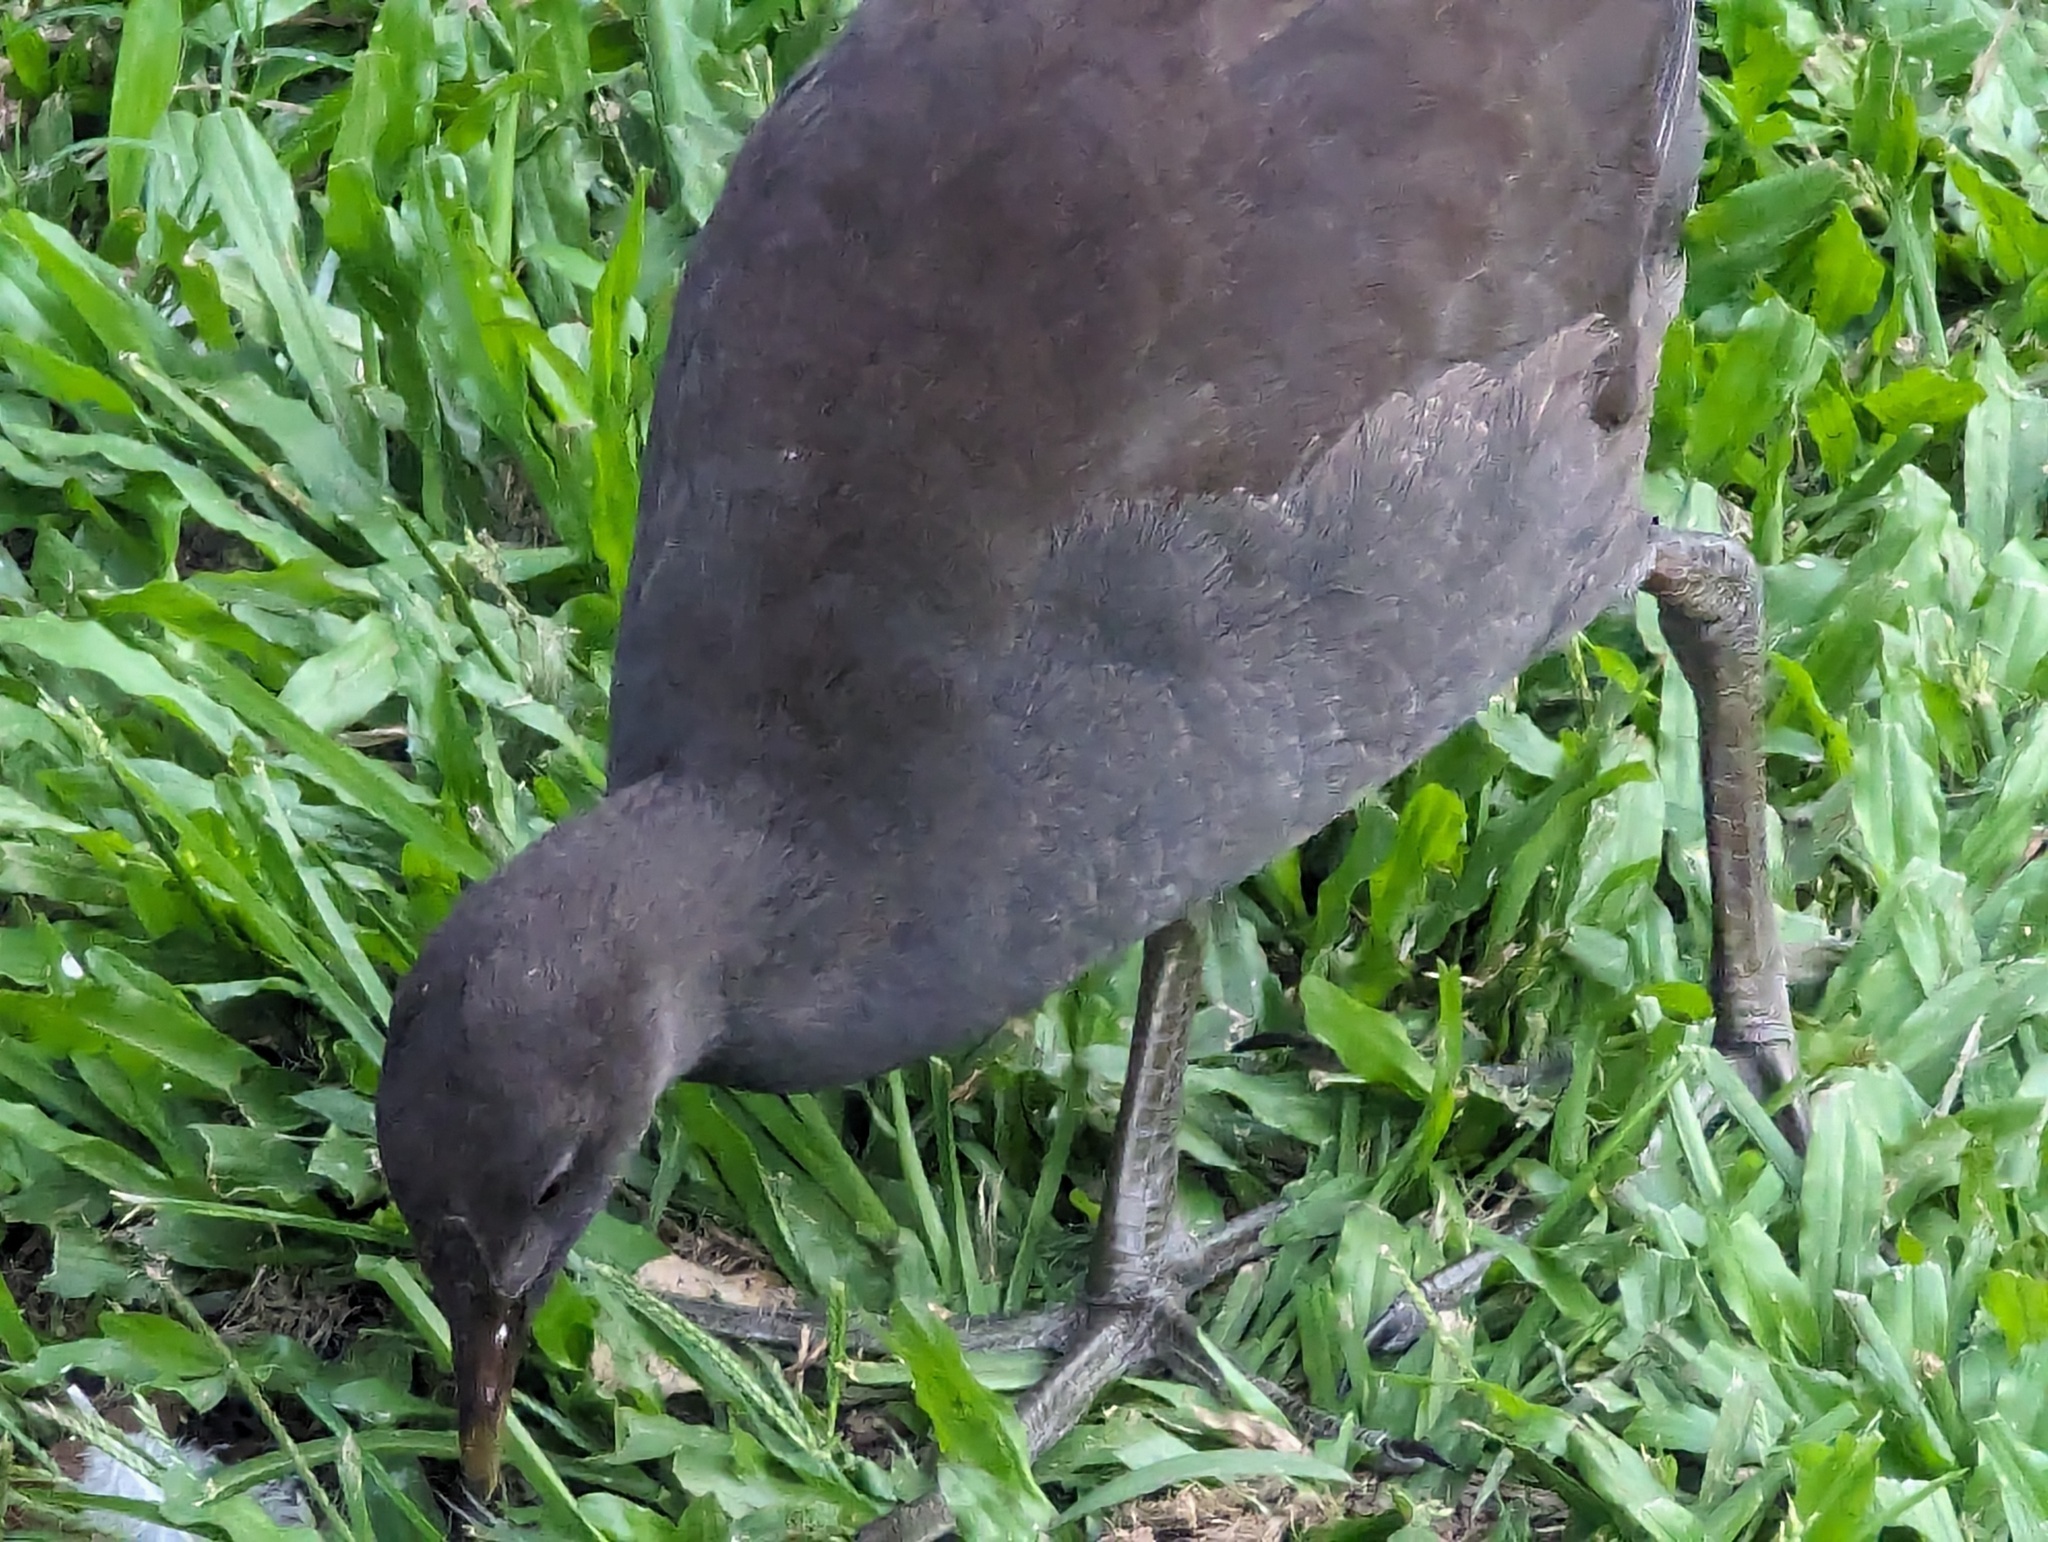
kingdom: Animalia
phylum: Chordata
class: Aves
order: Gruiformes
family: Rallidae
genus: Gallinula
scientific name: Gallinula tenebrosa
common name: Dusky moorhen
